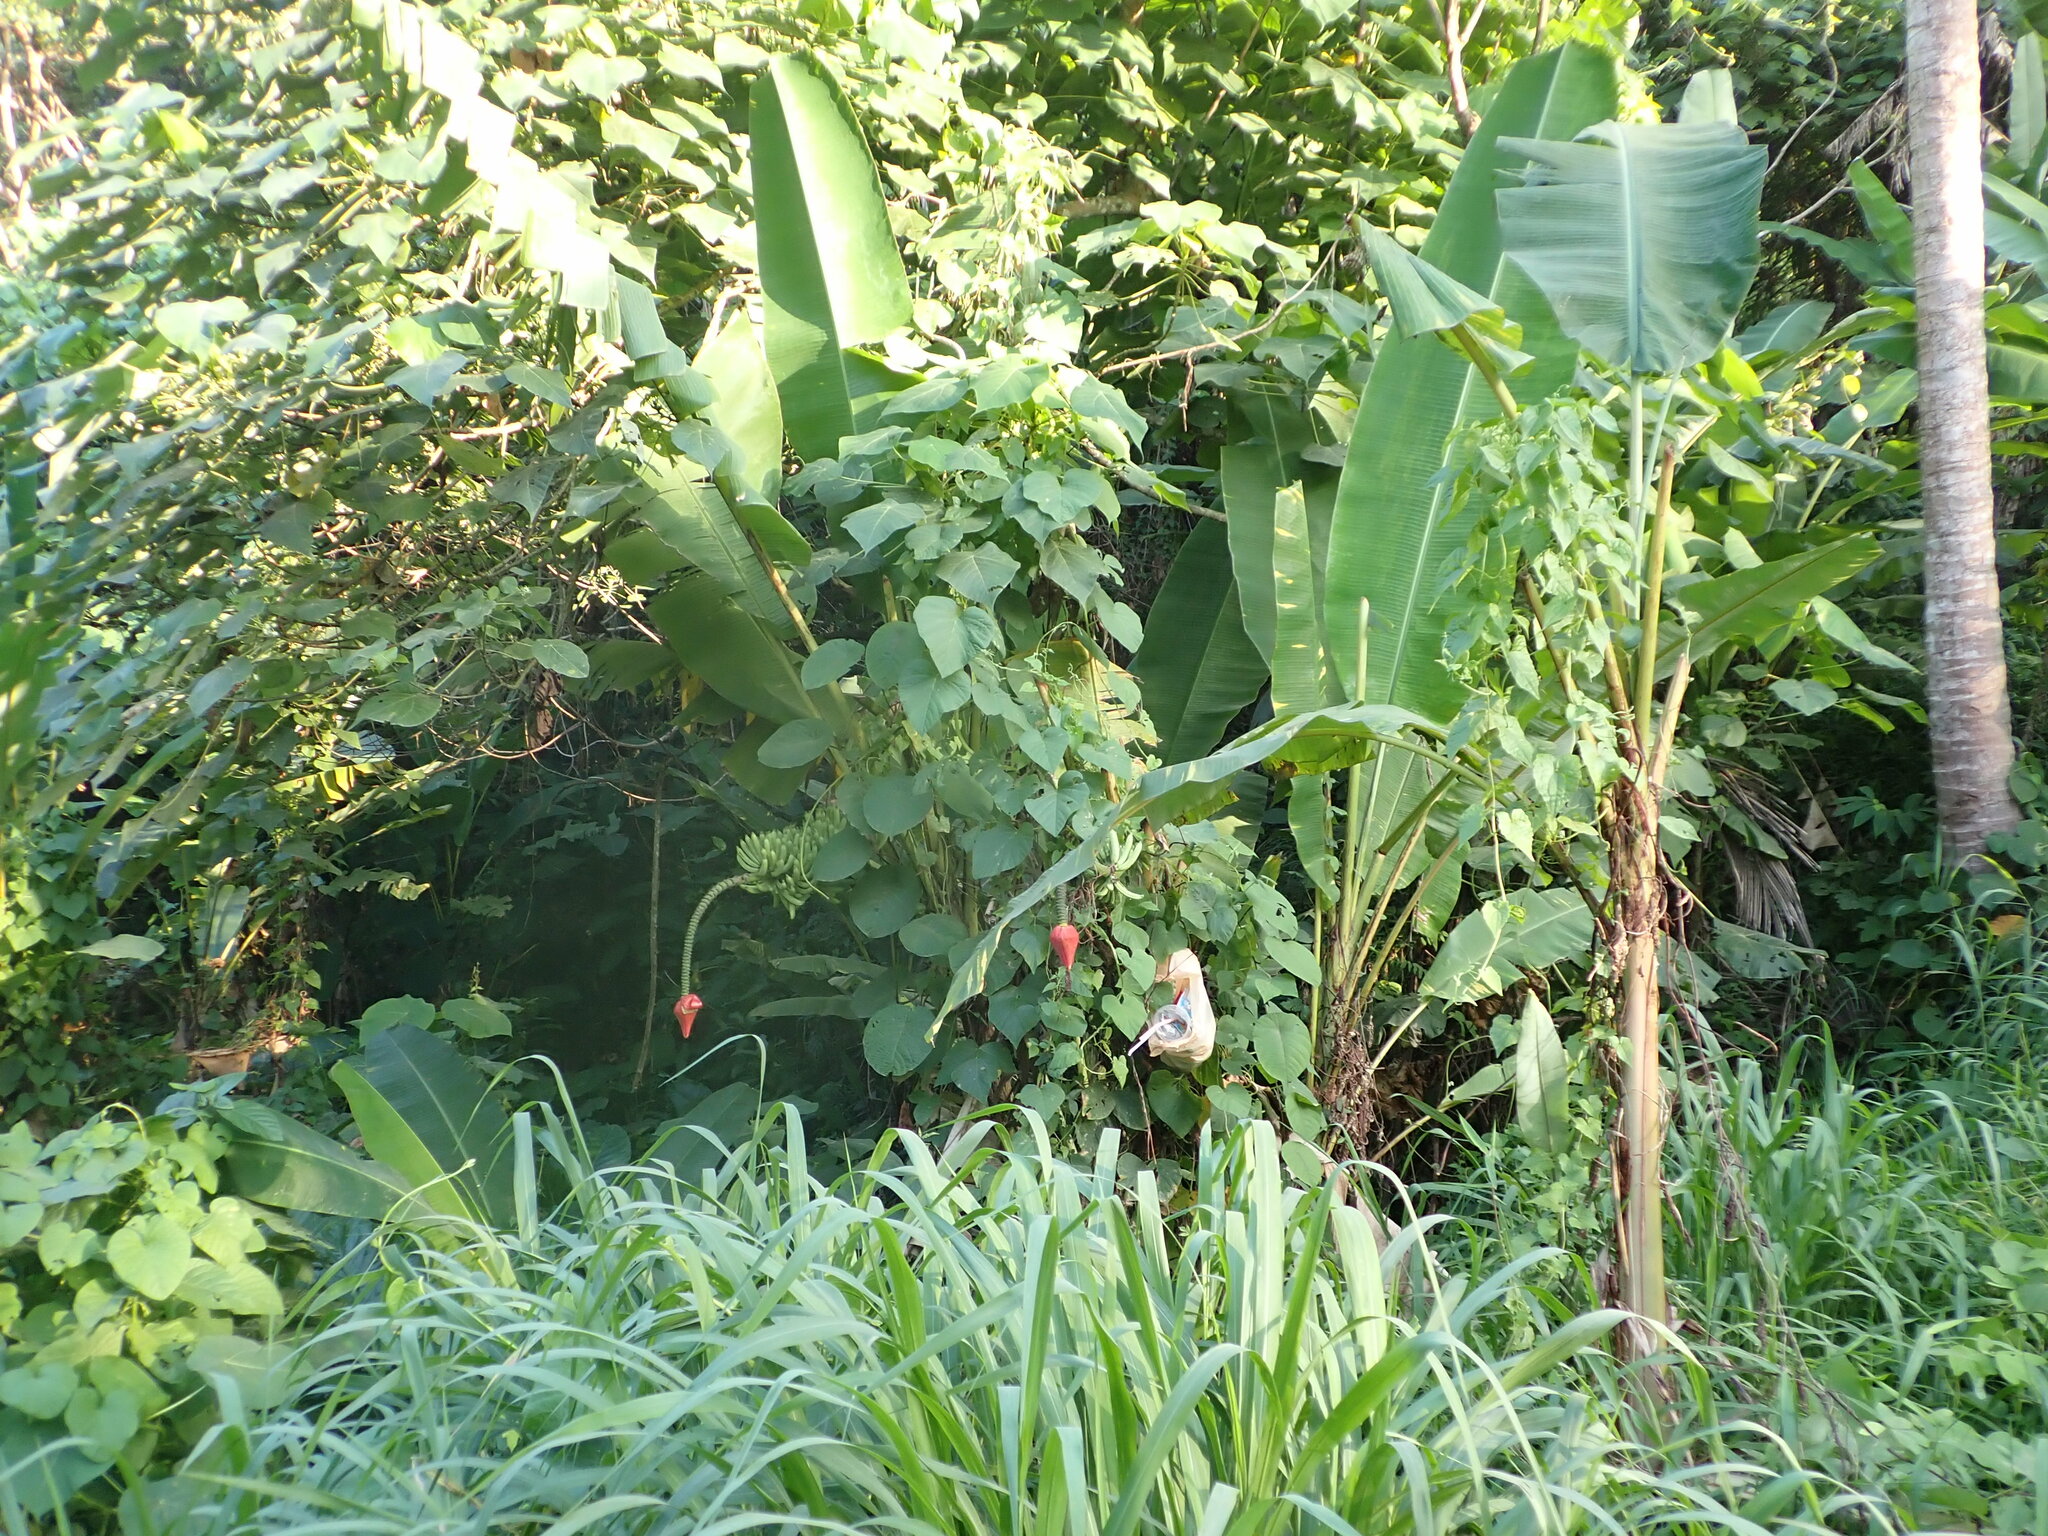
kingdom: Plantae
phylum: Tracheophyta
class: Liliopsida
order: Zingiberales
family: Musaceae
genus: Musa
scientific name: Musa acuminata
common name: Edible banana
